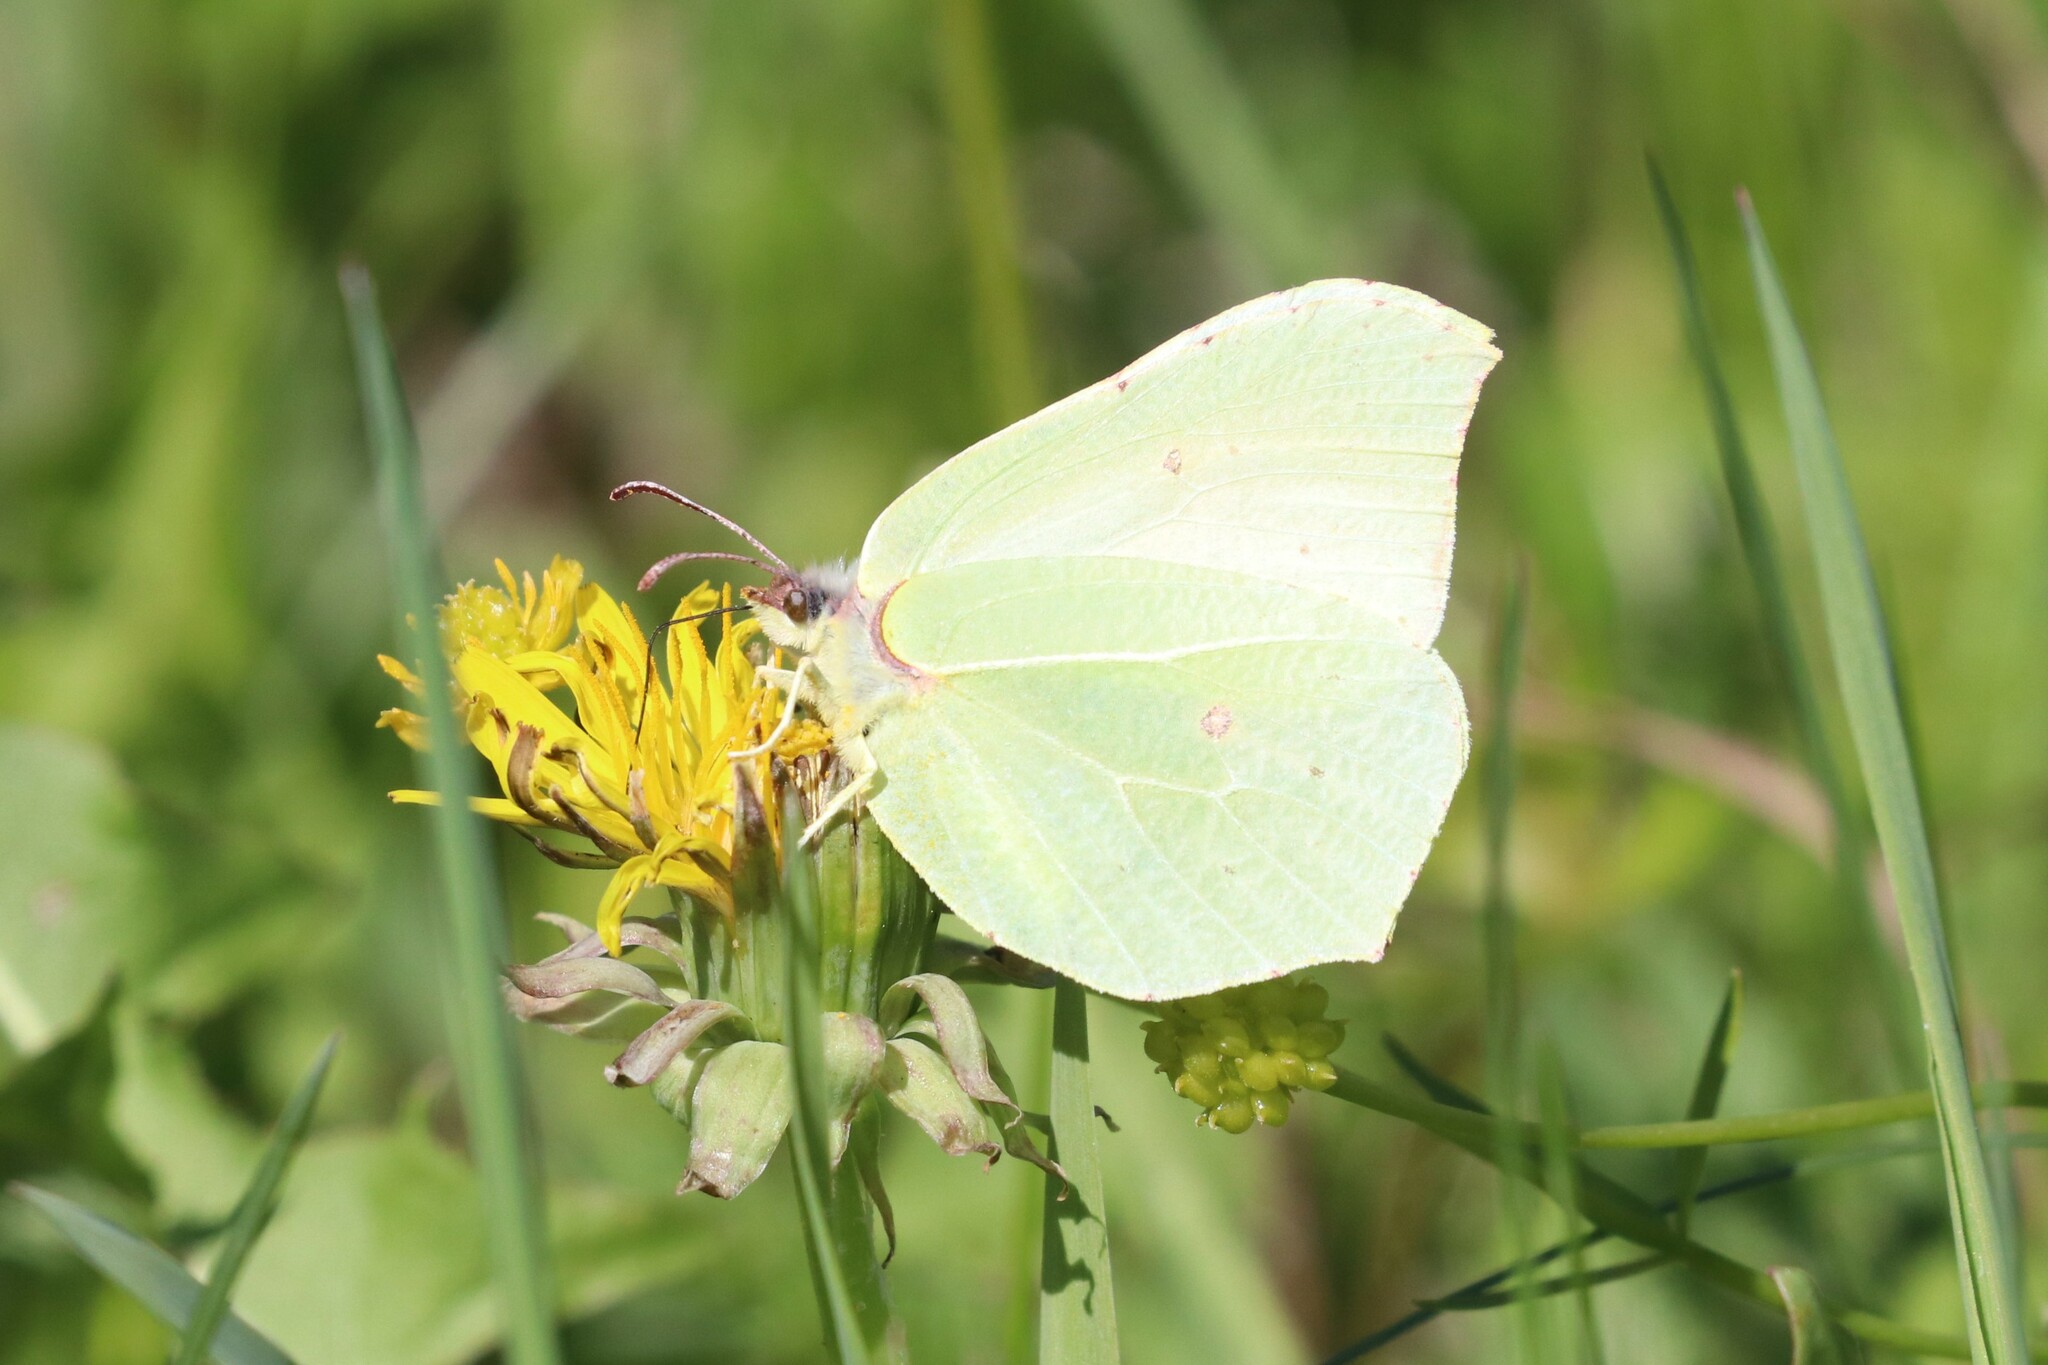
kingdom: Animalia
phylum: Arthropoda
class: Insecta
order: Lepidoptera
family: Pieridae
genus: Gonepteryx
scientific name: Gonepteryx rhamni
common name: Brimstone
